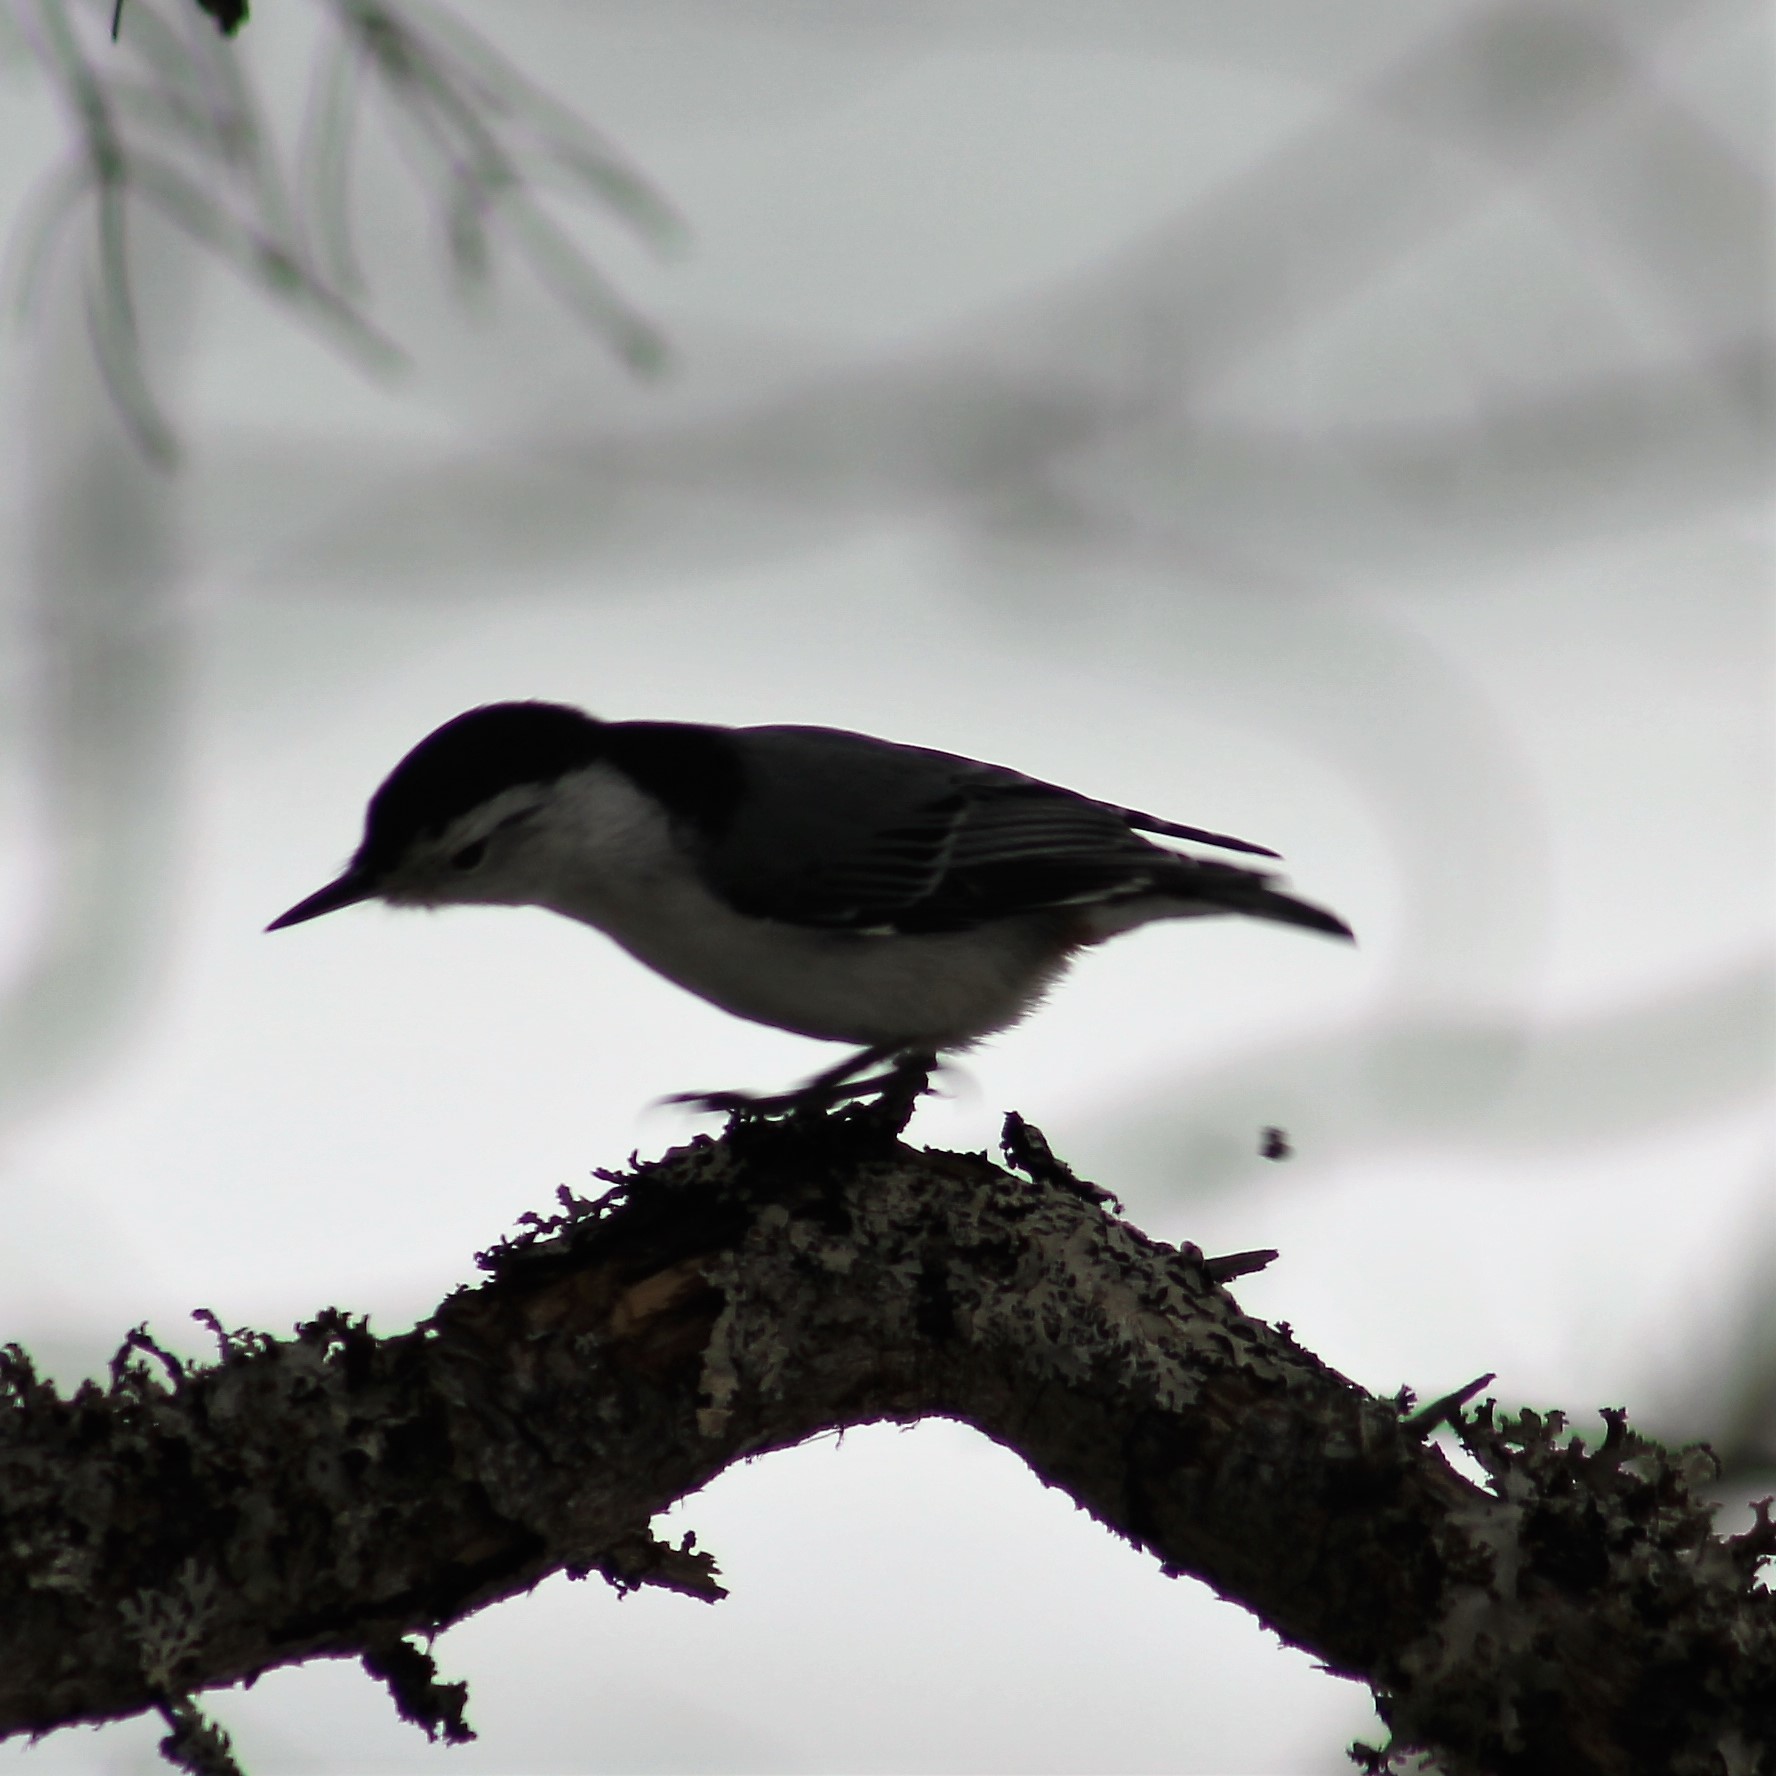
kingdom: Animalia
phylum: Chordata
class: Aves
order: Passeriformes
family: Sittidae
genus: Sitta
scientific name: Sitta carolinensis
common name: White-breasted nuthatch
